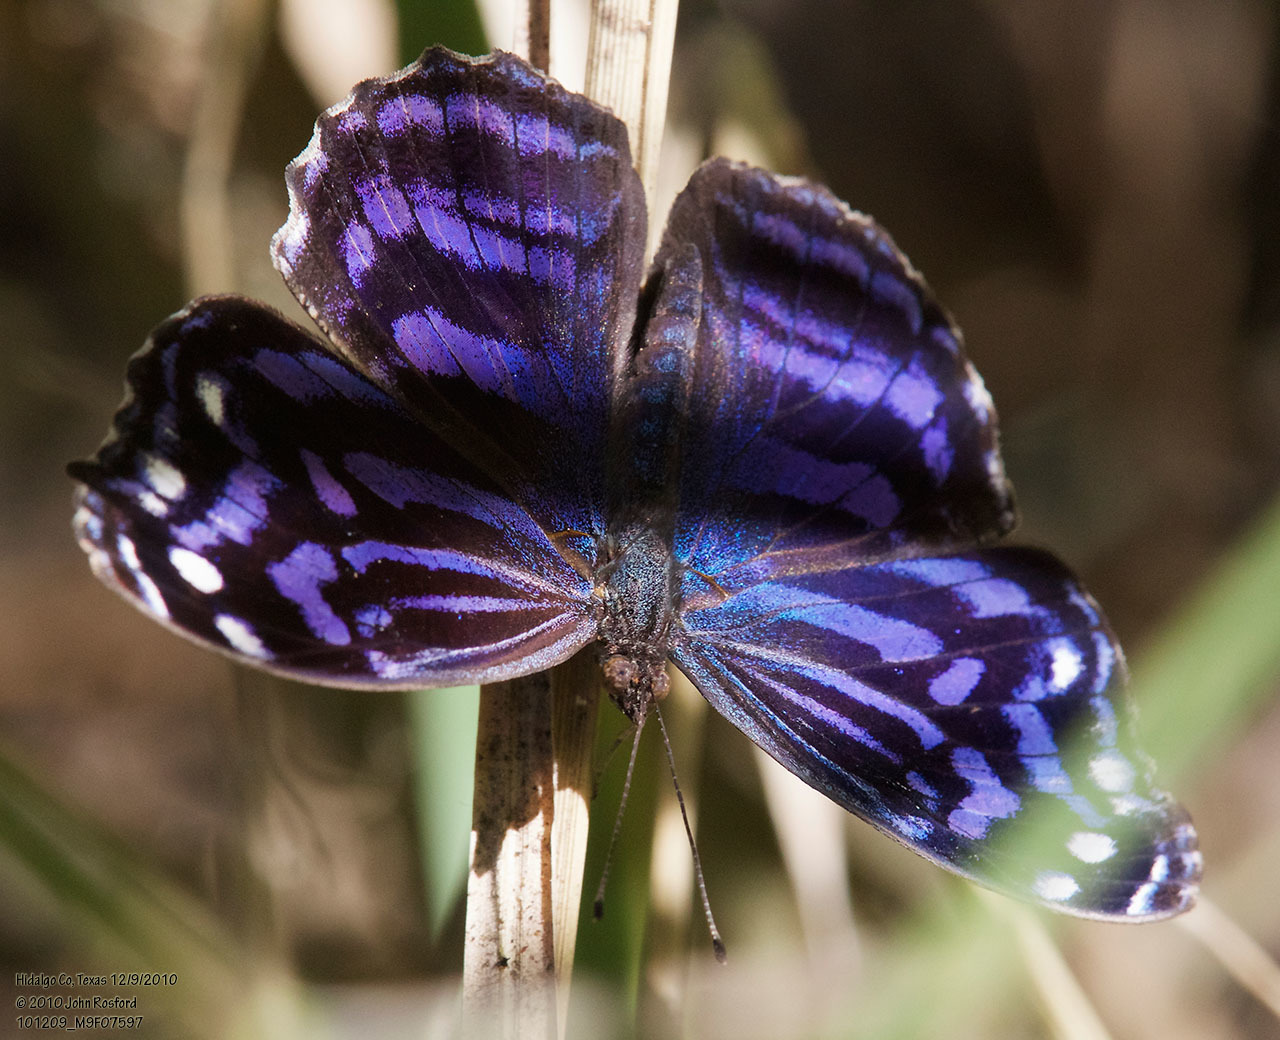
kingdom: Animalia
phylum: Arthropoda
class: Insecta
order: Lepidoptera
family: Nymphalidae
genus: Myscelia
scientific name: Myscelia ethusa
